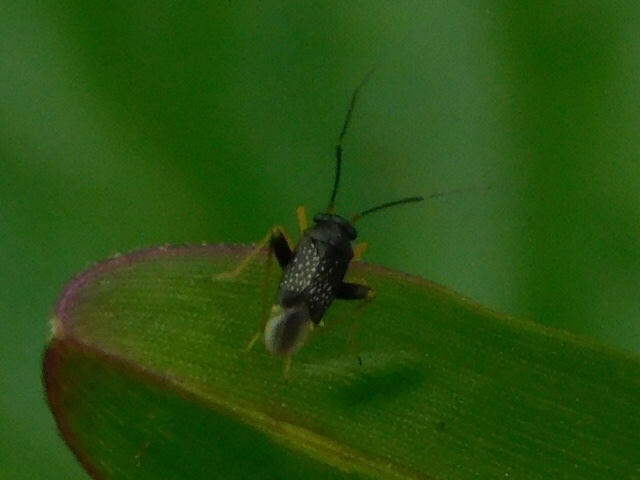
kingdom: Animalia
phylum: Arthropoda
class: Insecta
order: Hemiptera
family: Miridae
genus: Microtechnites
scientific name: Microtechnites bractatus
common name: Garden fleahopper
